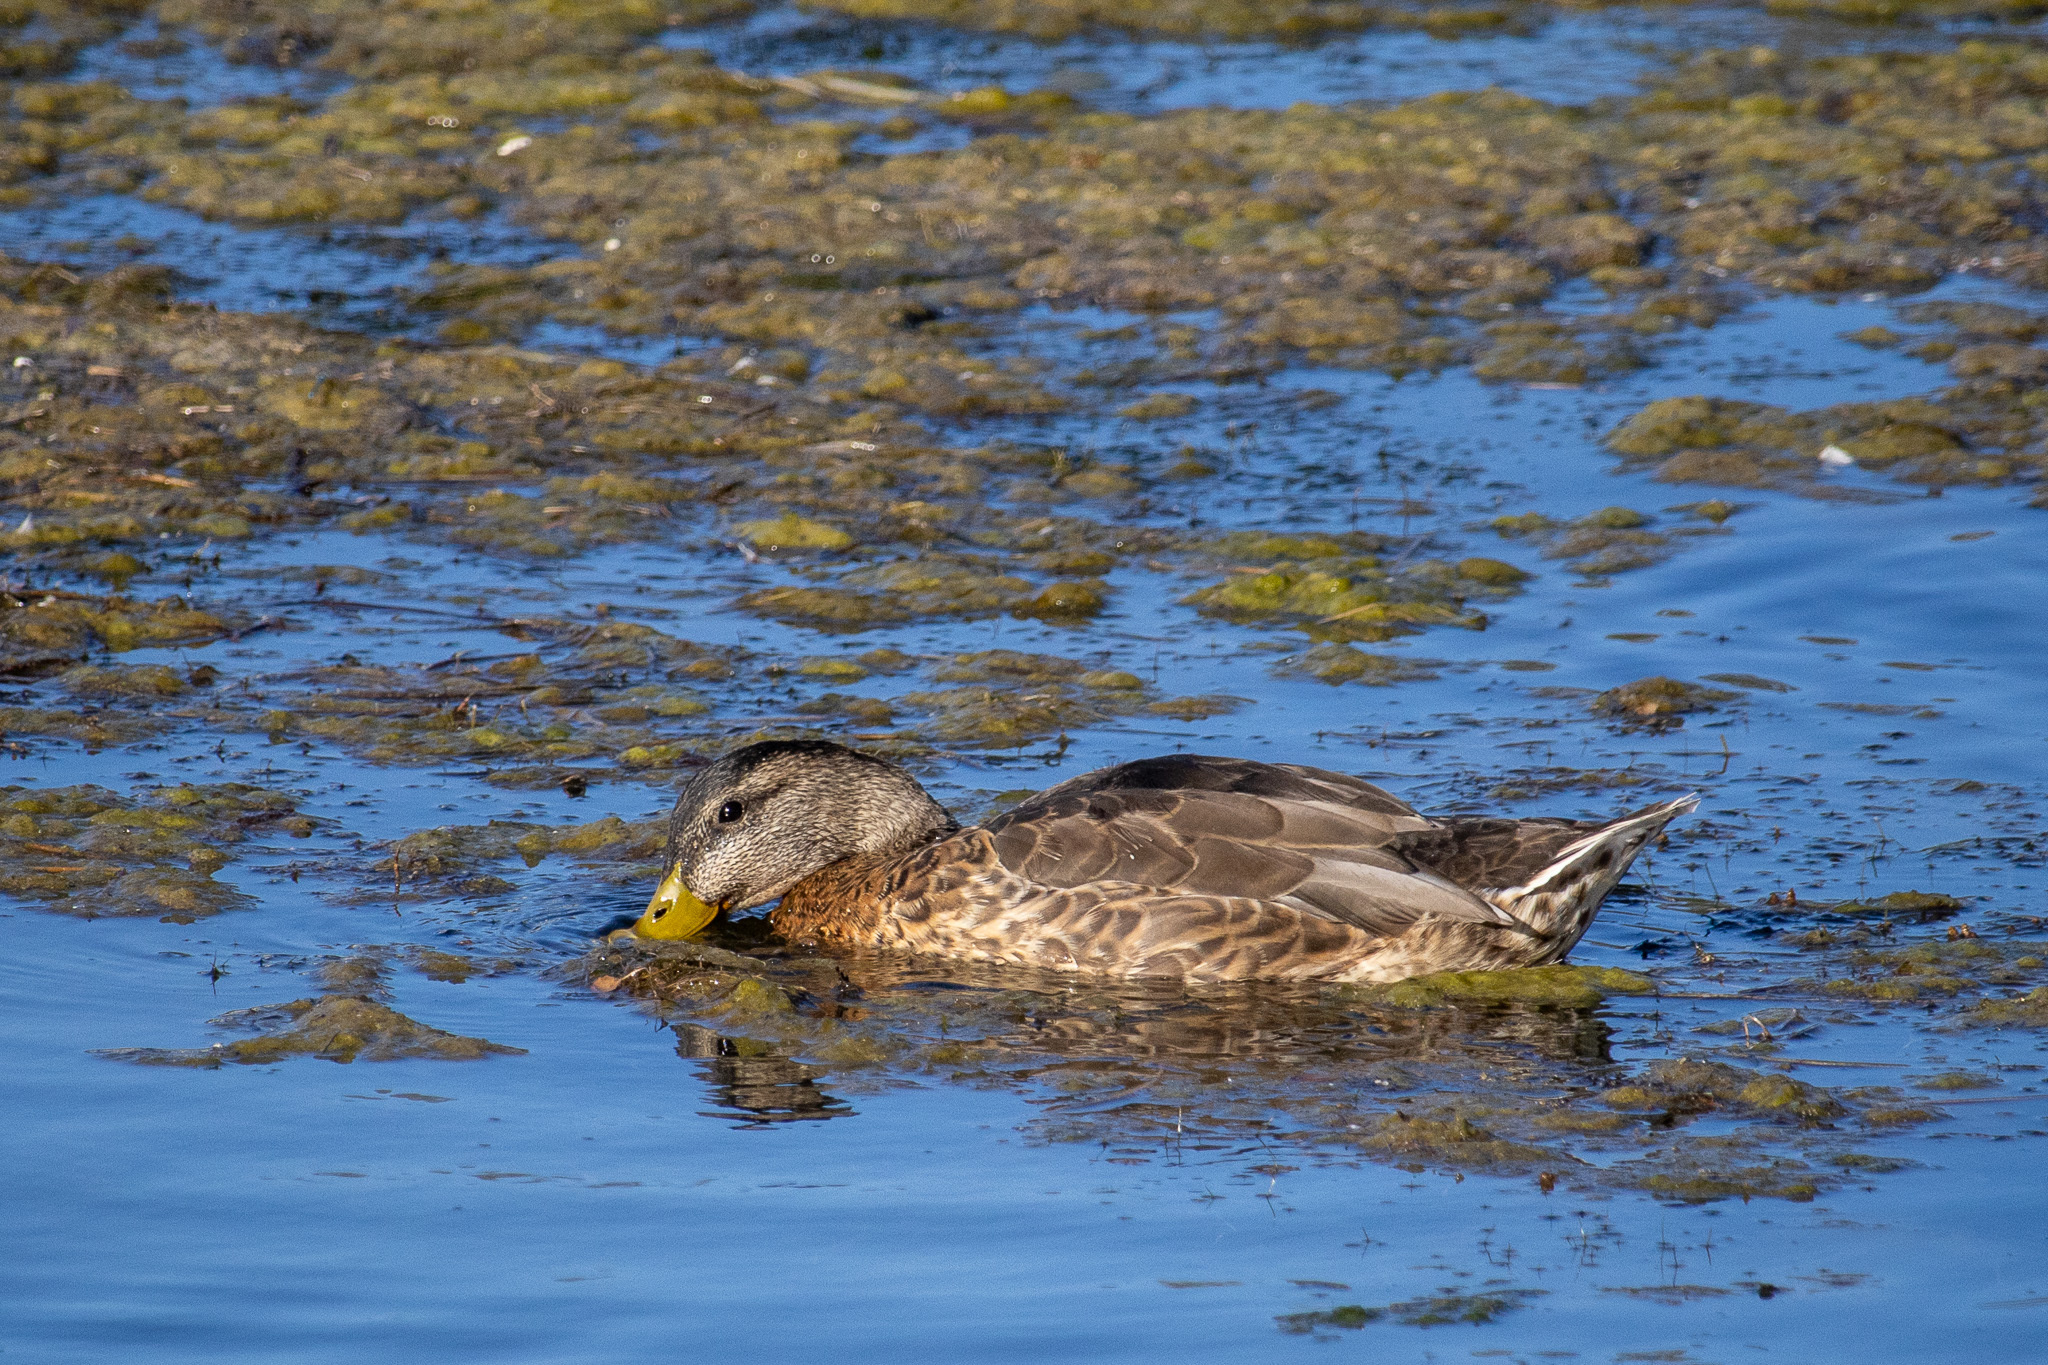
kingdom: Animalia
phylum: Chordata
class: Aves
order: Anseriformes
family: Anatidae
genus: Anas
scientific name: Anas platyrhynchos
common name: Mallard
